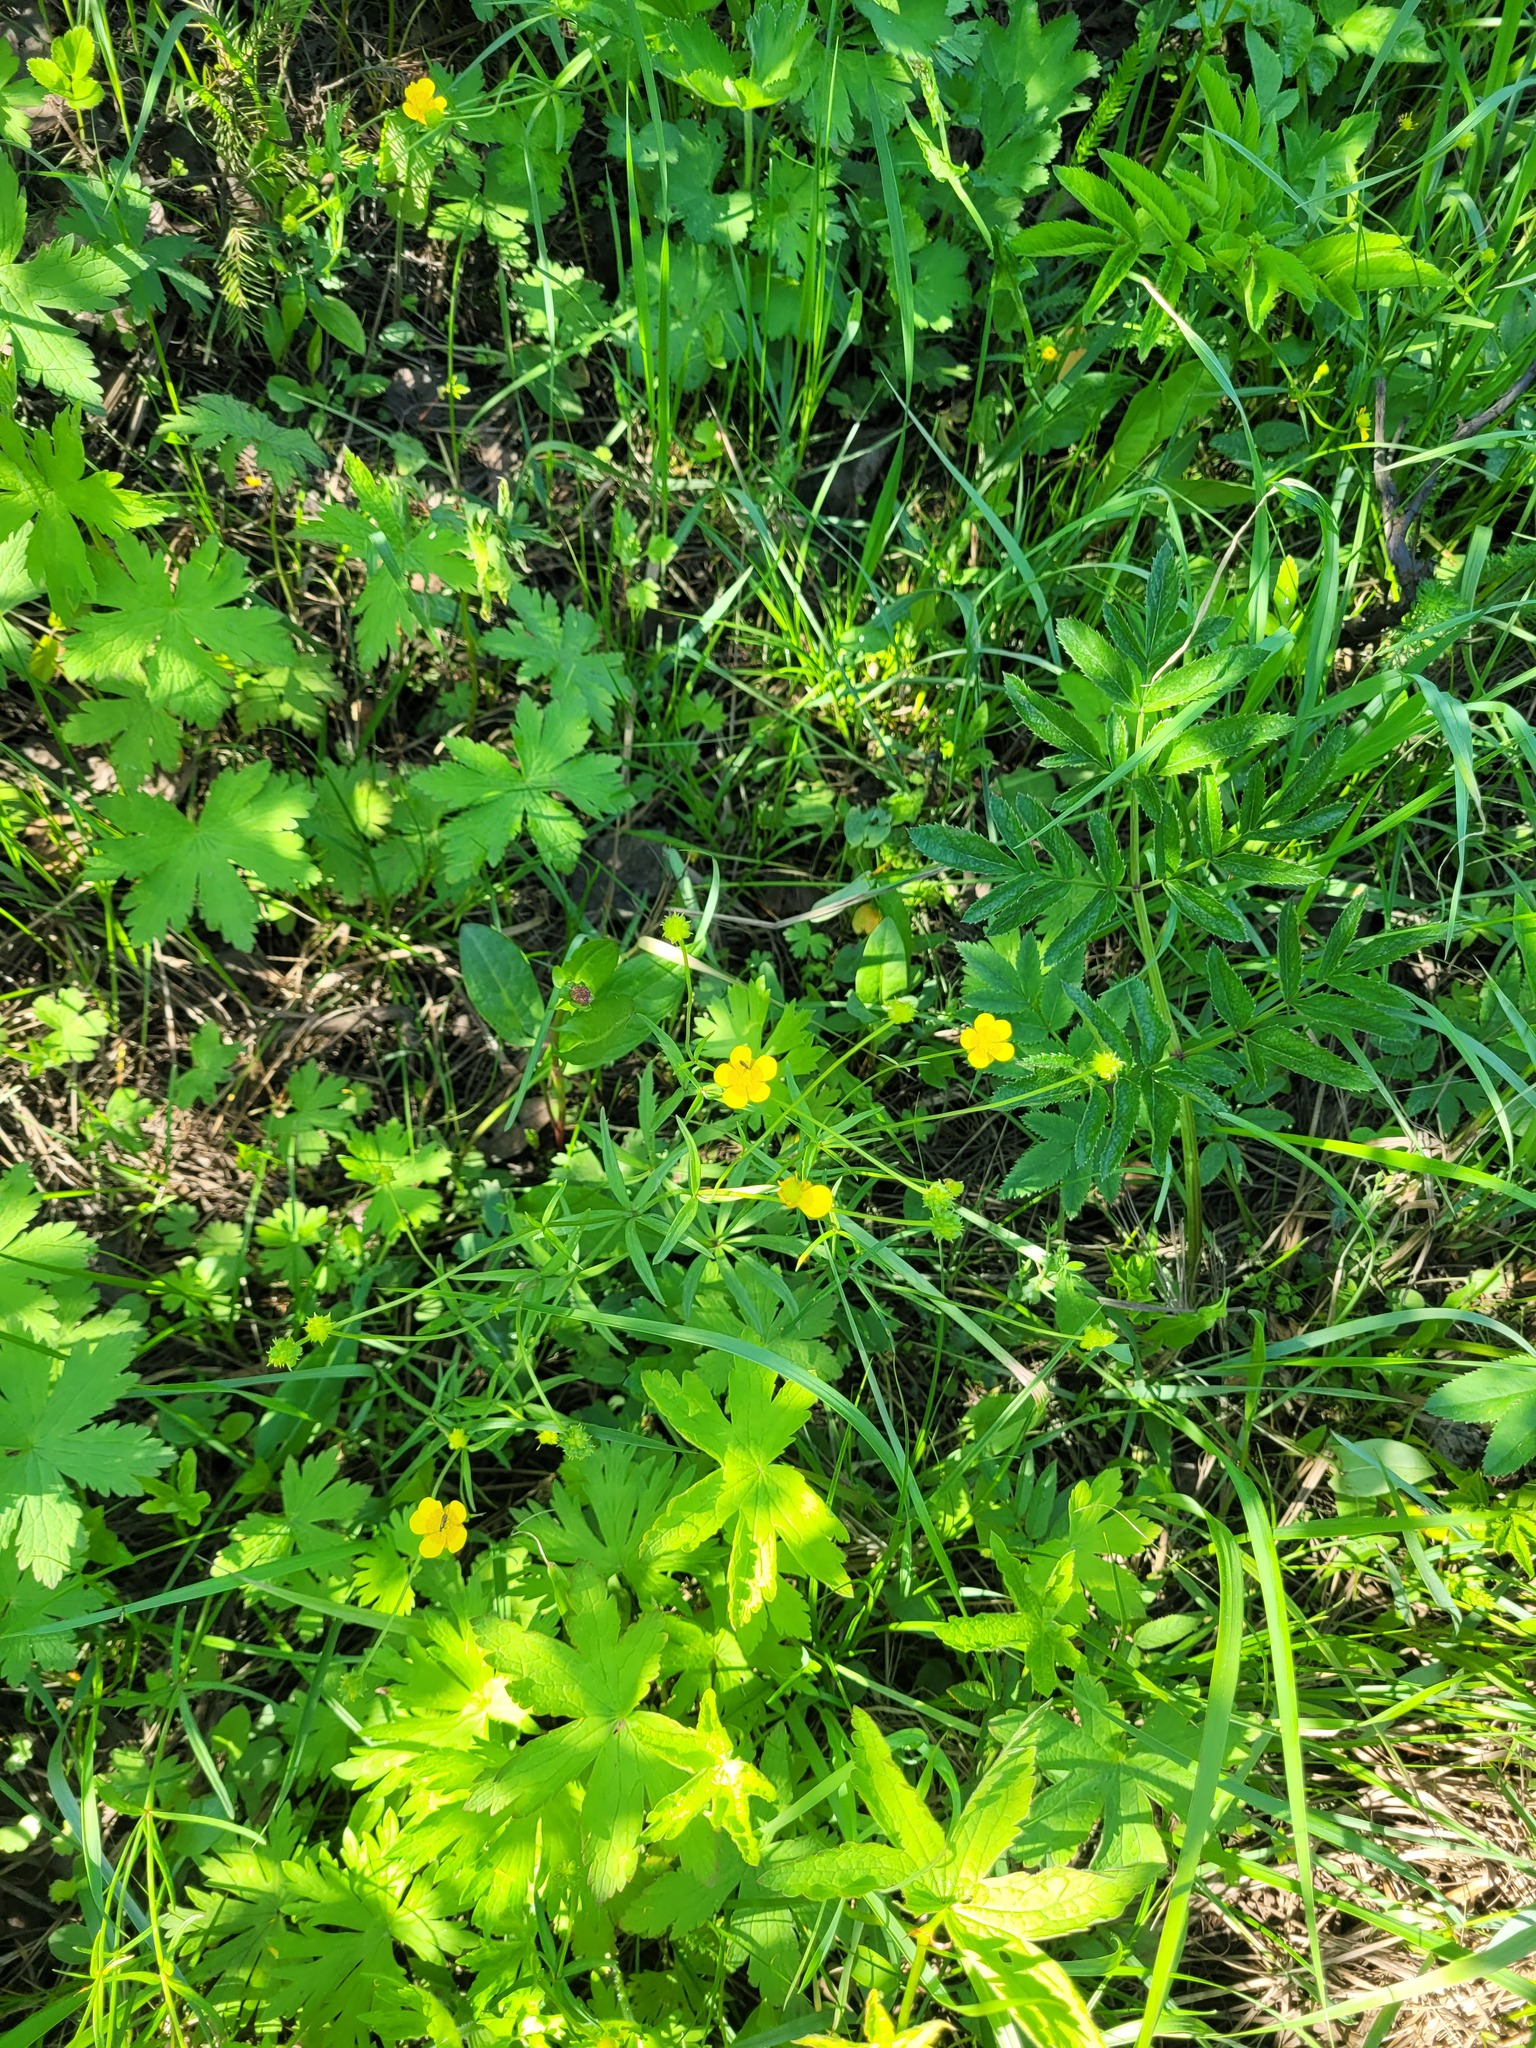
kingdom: Plantae
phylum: Tracheophyta
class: Magnoliopsida
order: Ranunculales
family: Ranunculaceae
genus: Ranunculus
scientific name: Ranunculus auricomus
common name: Goldilocks buttercup
